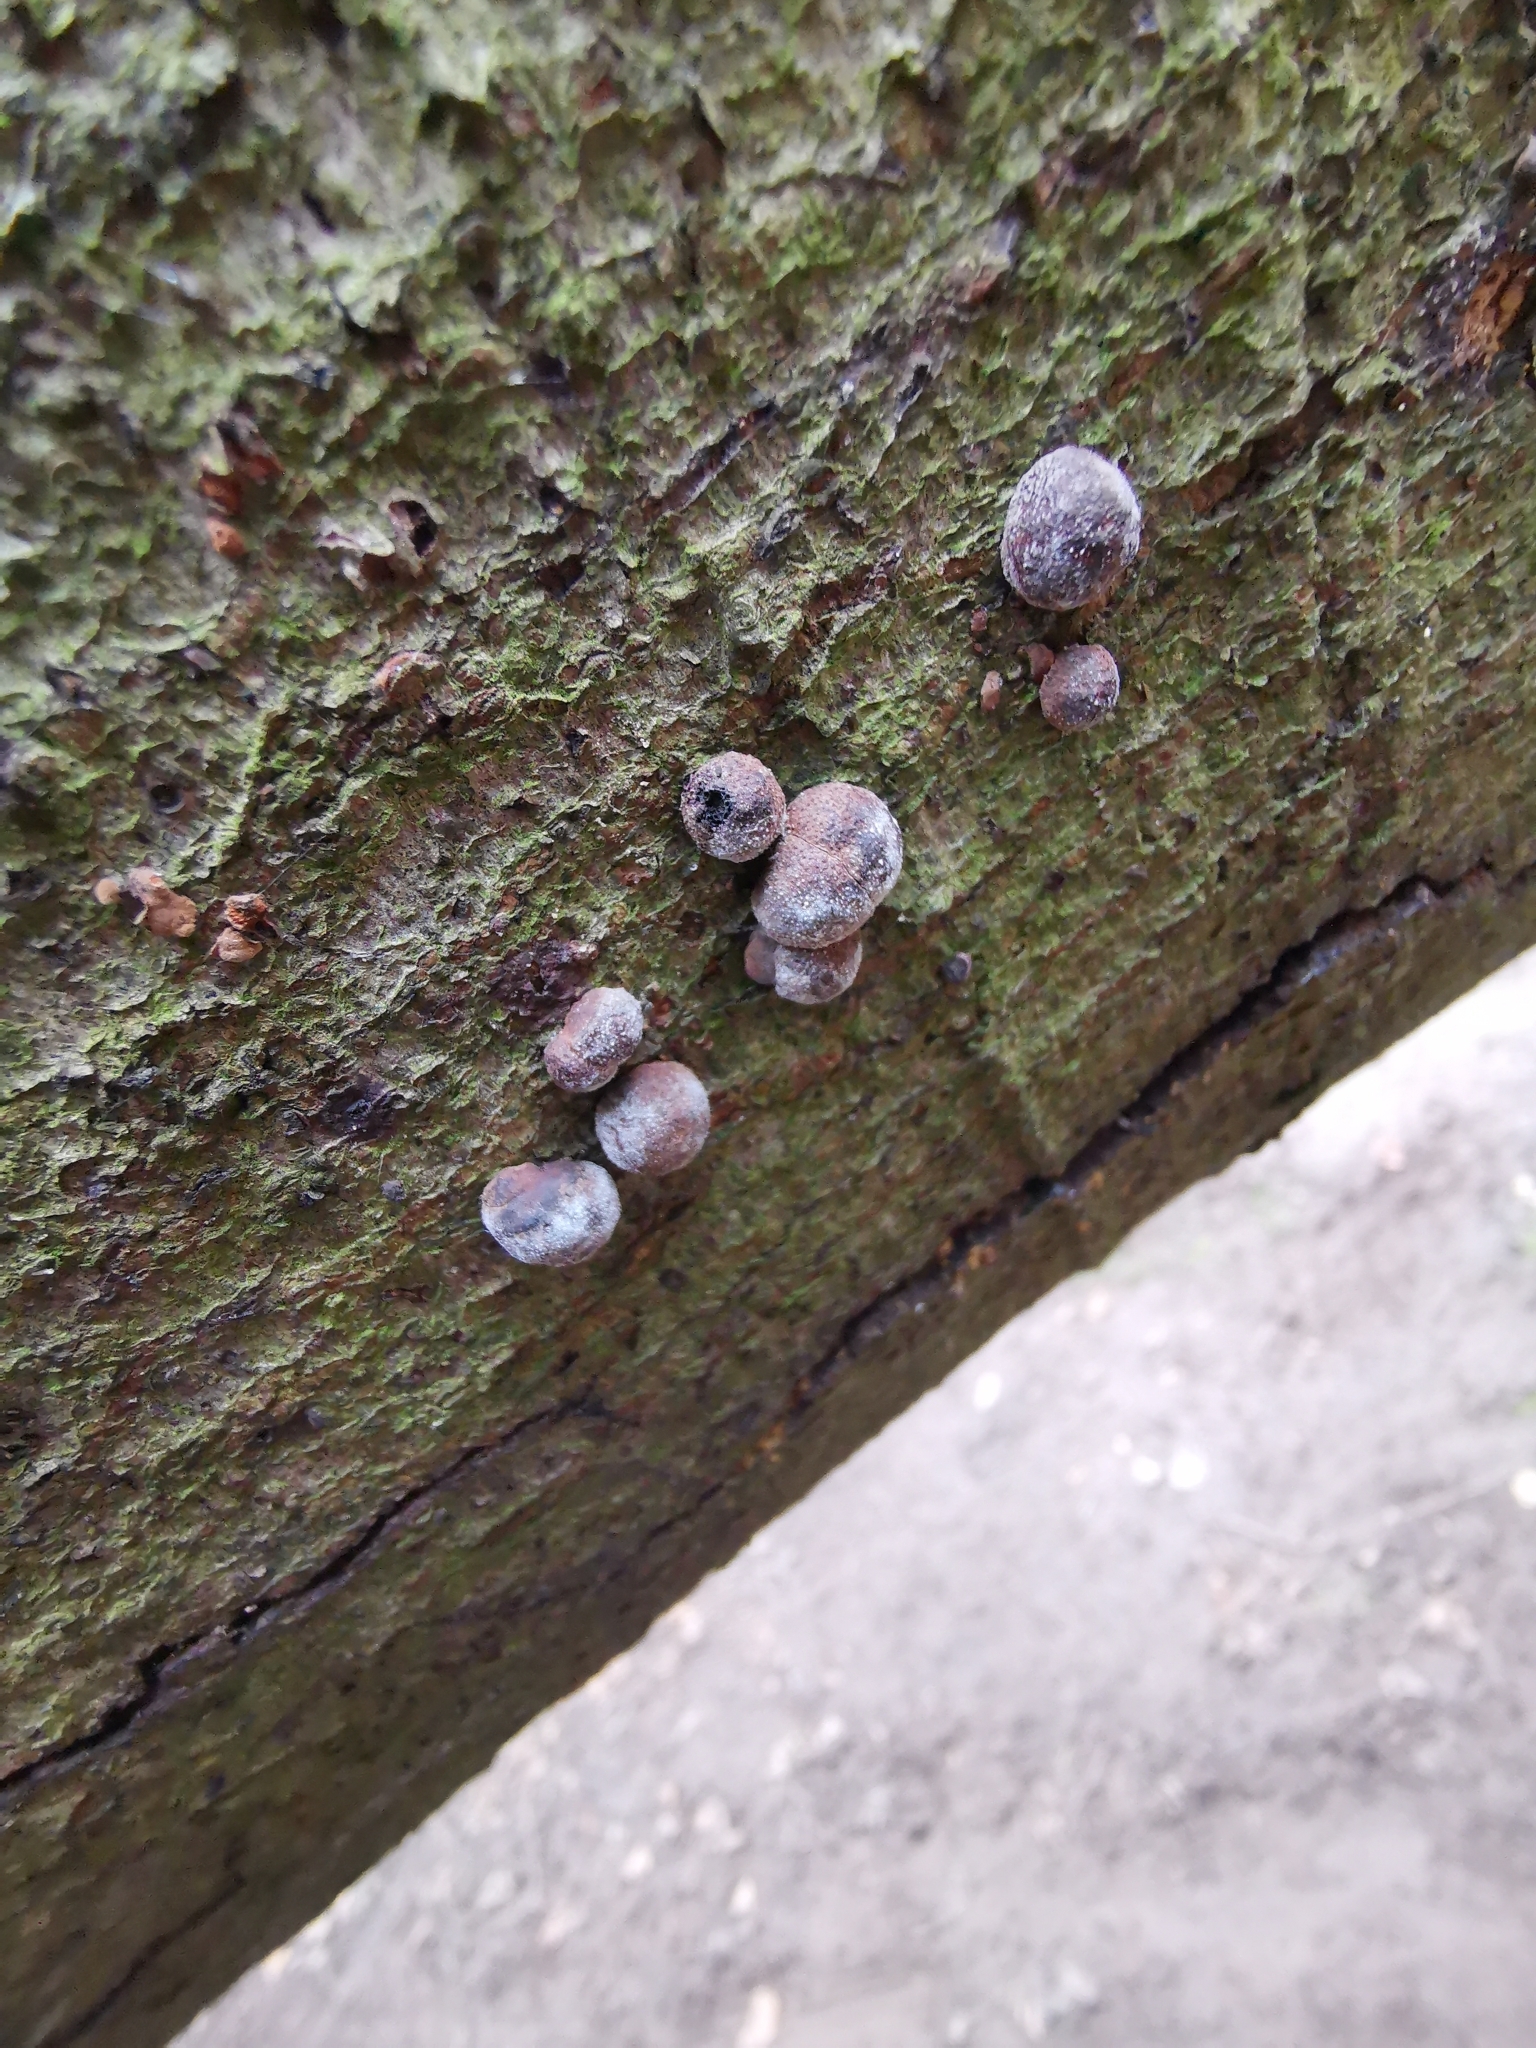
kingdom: Fungi
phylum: Ascomycota
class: Sordariomycetes
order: Xylariales
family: Hypoxylaceae
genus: Hypoxylon
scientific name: Hypoxylon fragiforme
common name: Beech woodwart
